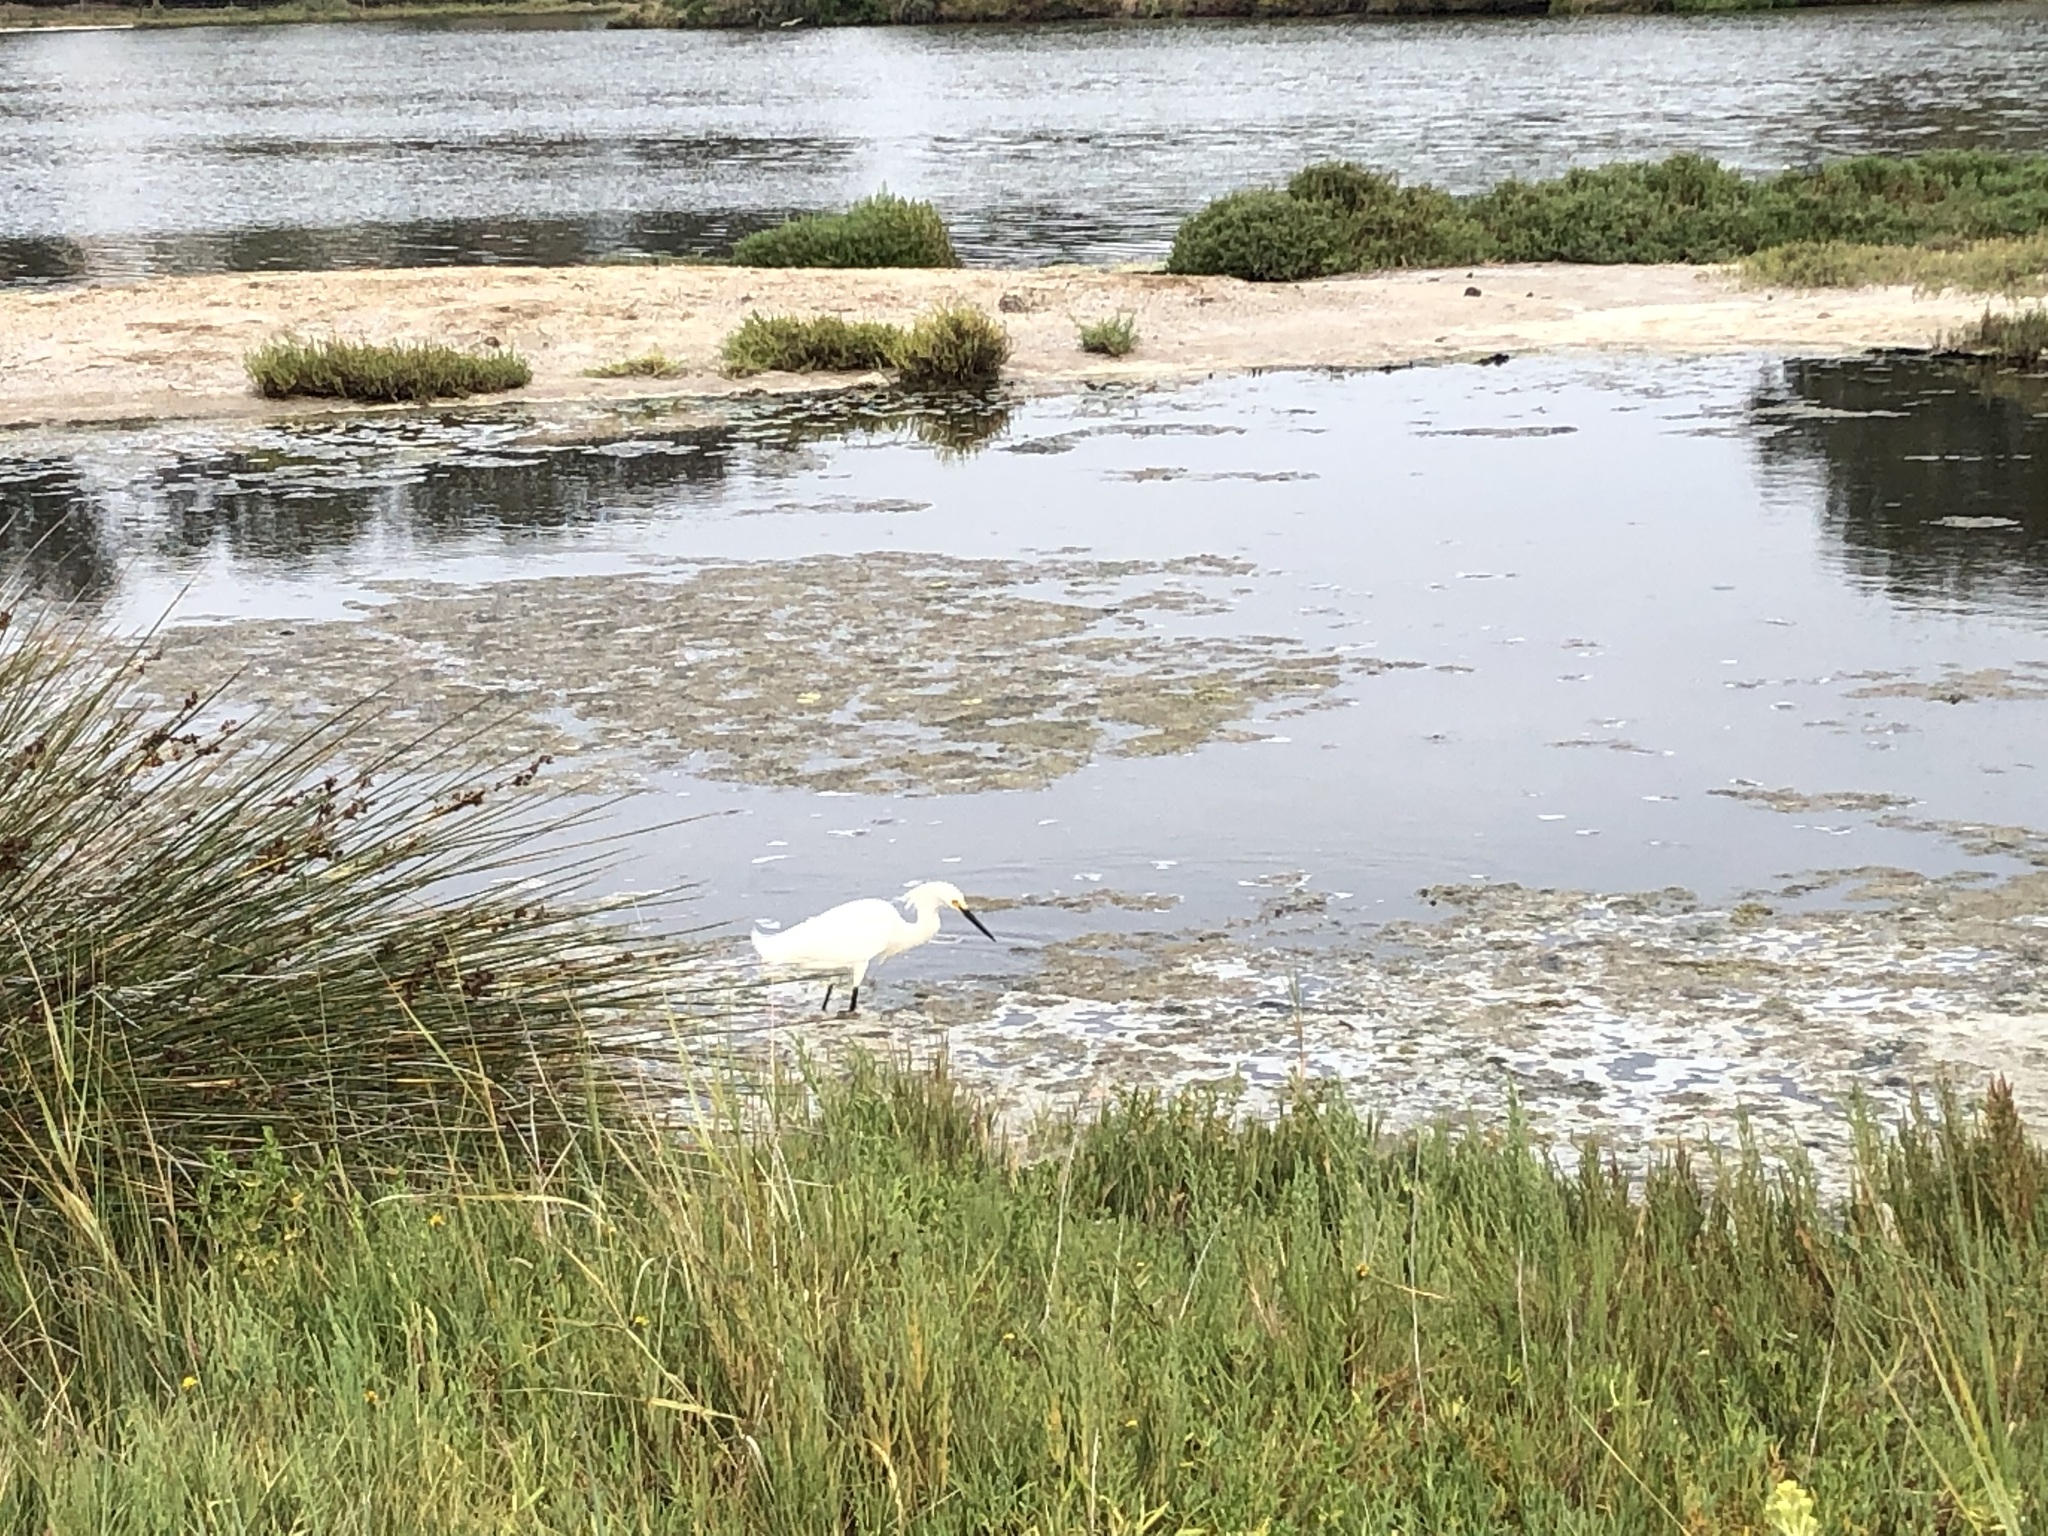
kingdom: Animalia
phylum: Chordata
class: Aves
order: Pelecaniformes
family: Ardeidae
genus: Egretta
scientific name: Egretta thula
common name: Snowy egret
